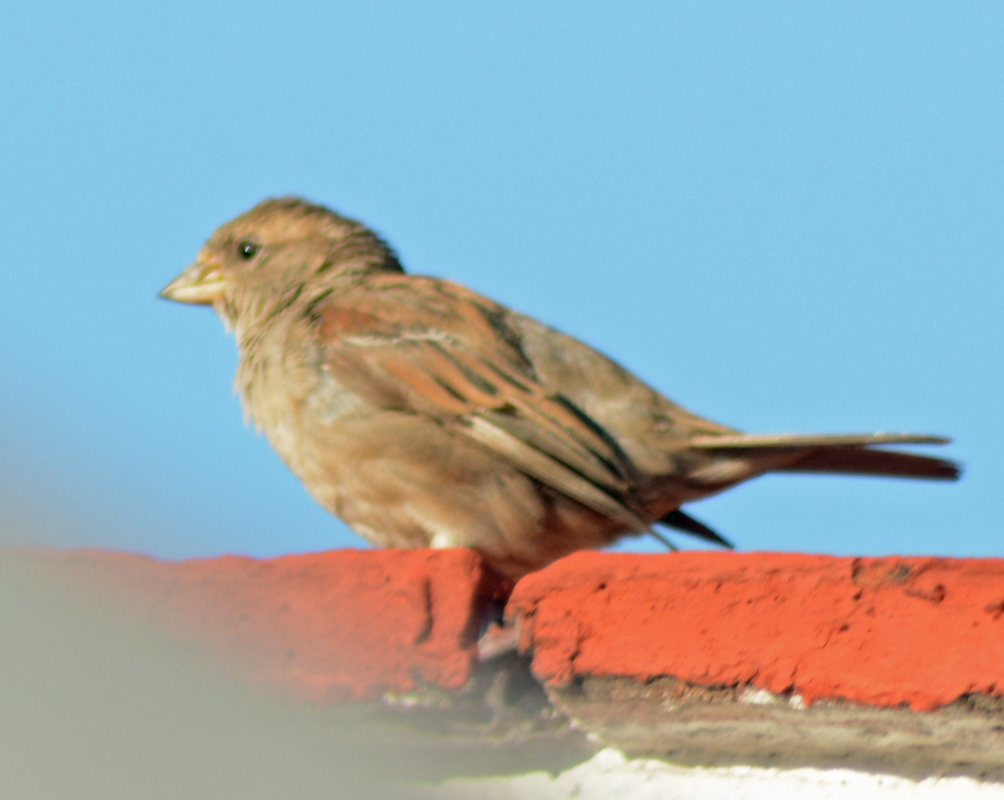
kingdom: Animalia
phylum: Chordata
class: Aves
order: Passeriformes
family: Passeridae
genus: Passer
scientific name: Passer domesticus
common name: House sparrow
